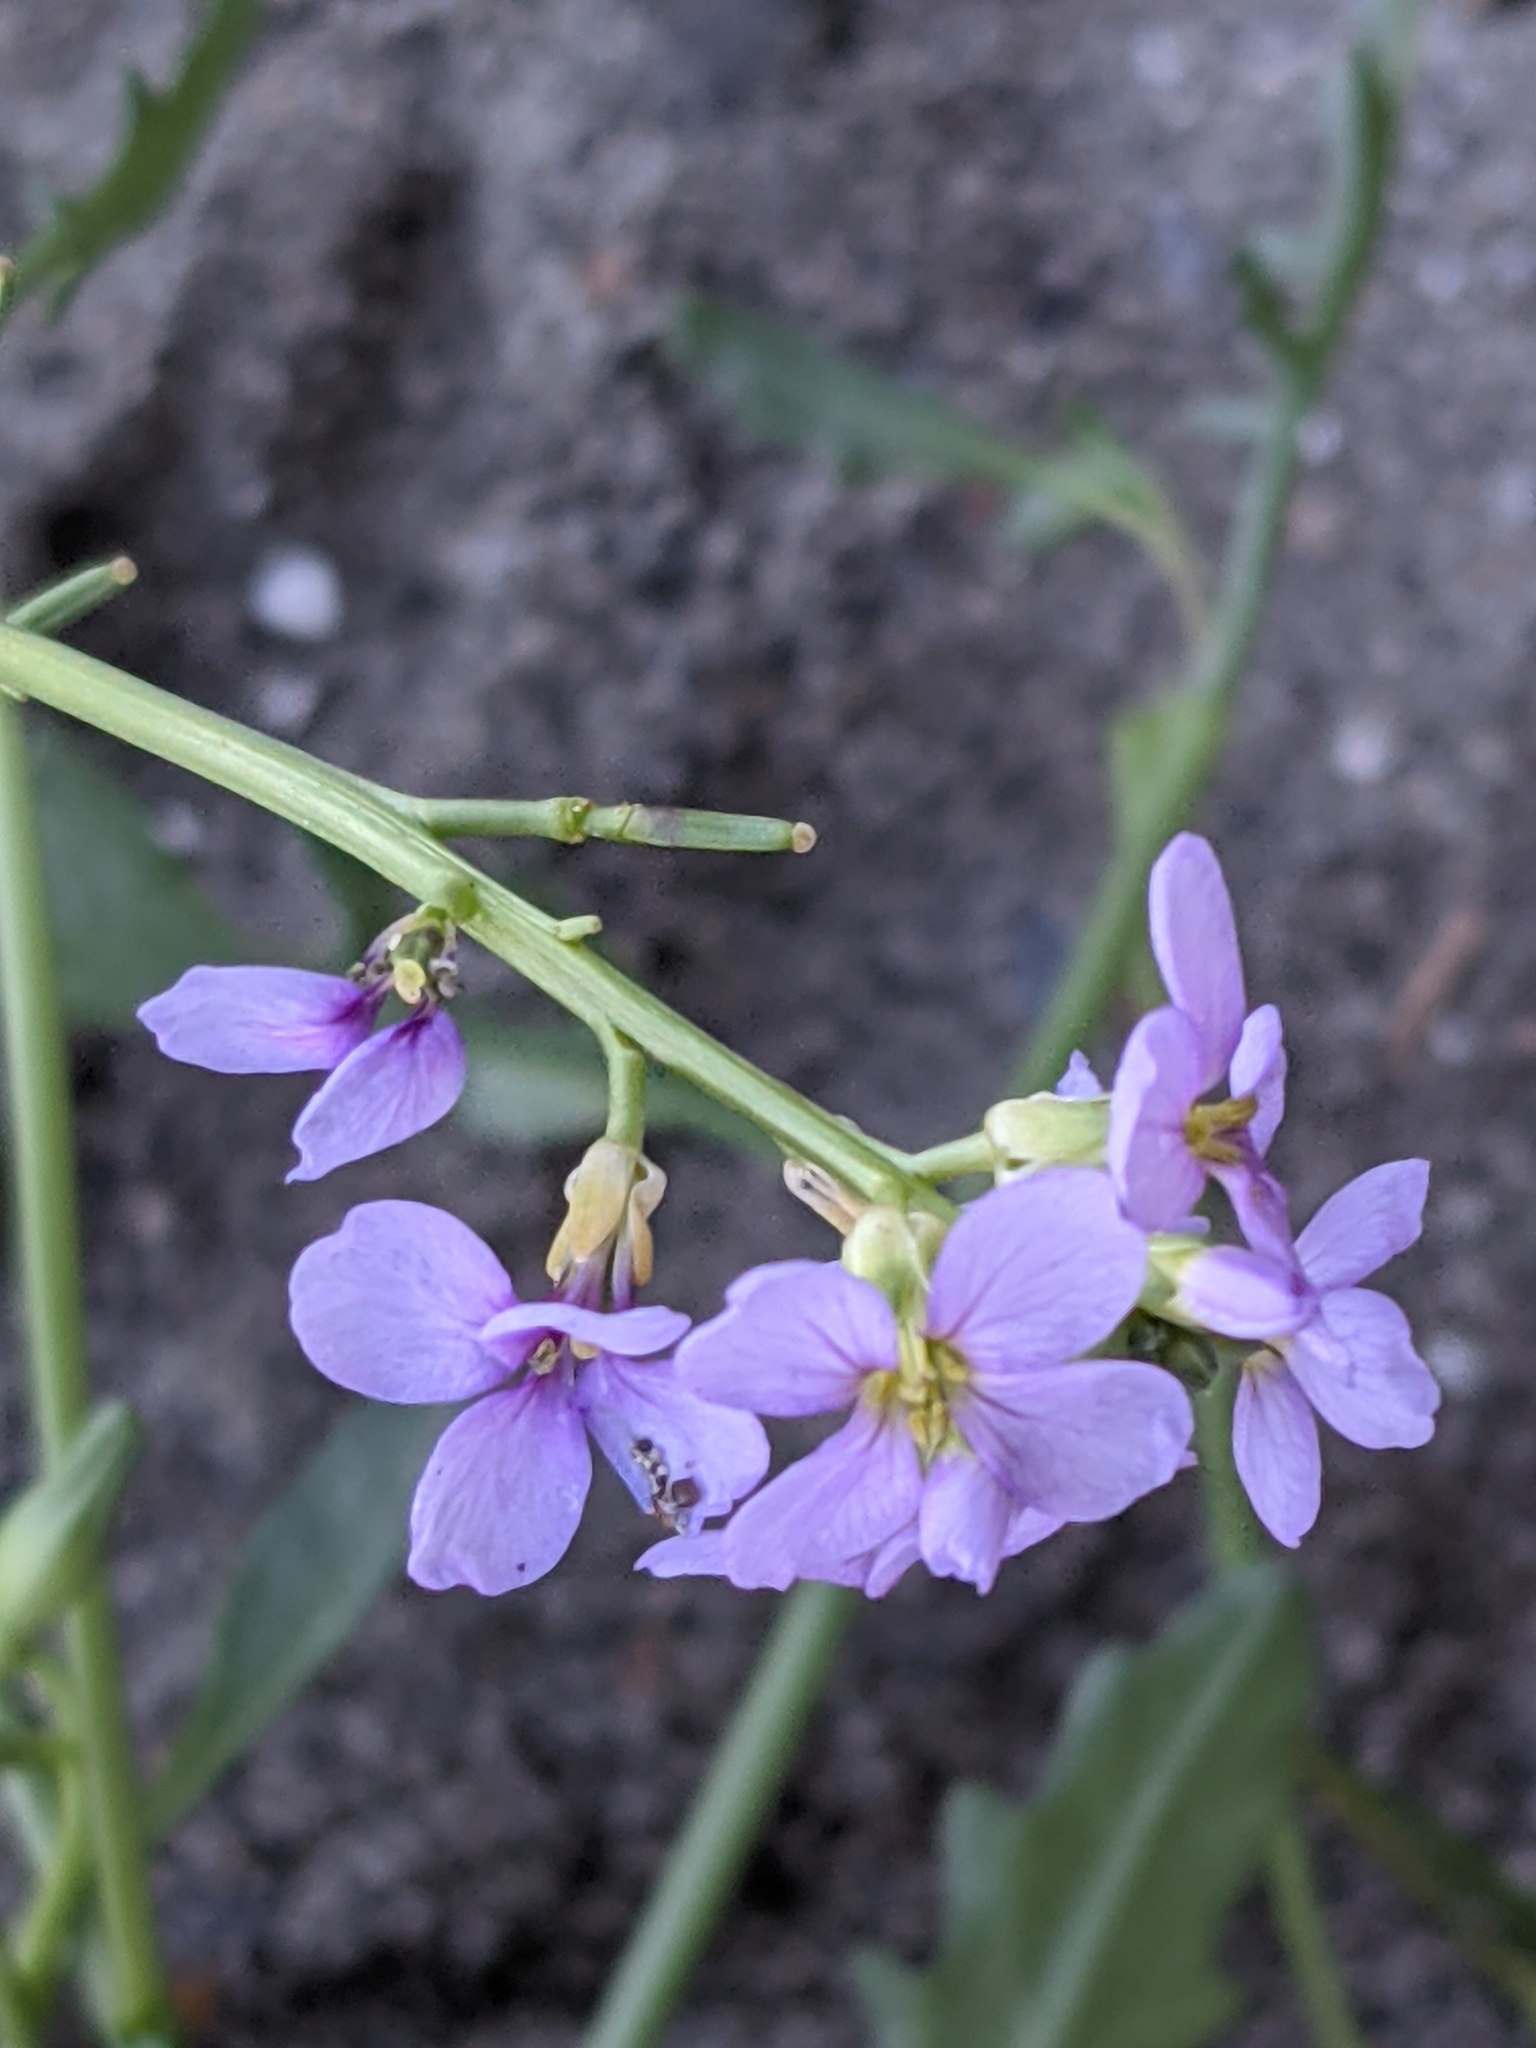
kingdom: Plantae
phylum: Tracheophyta
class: Magnoliopsida
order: Brassicales
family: Brassicaceae
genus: Cakile
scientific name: Cakile maritima
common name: Sea rocket
